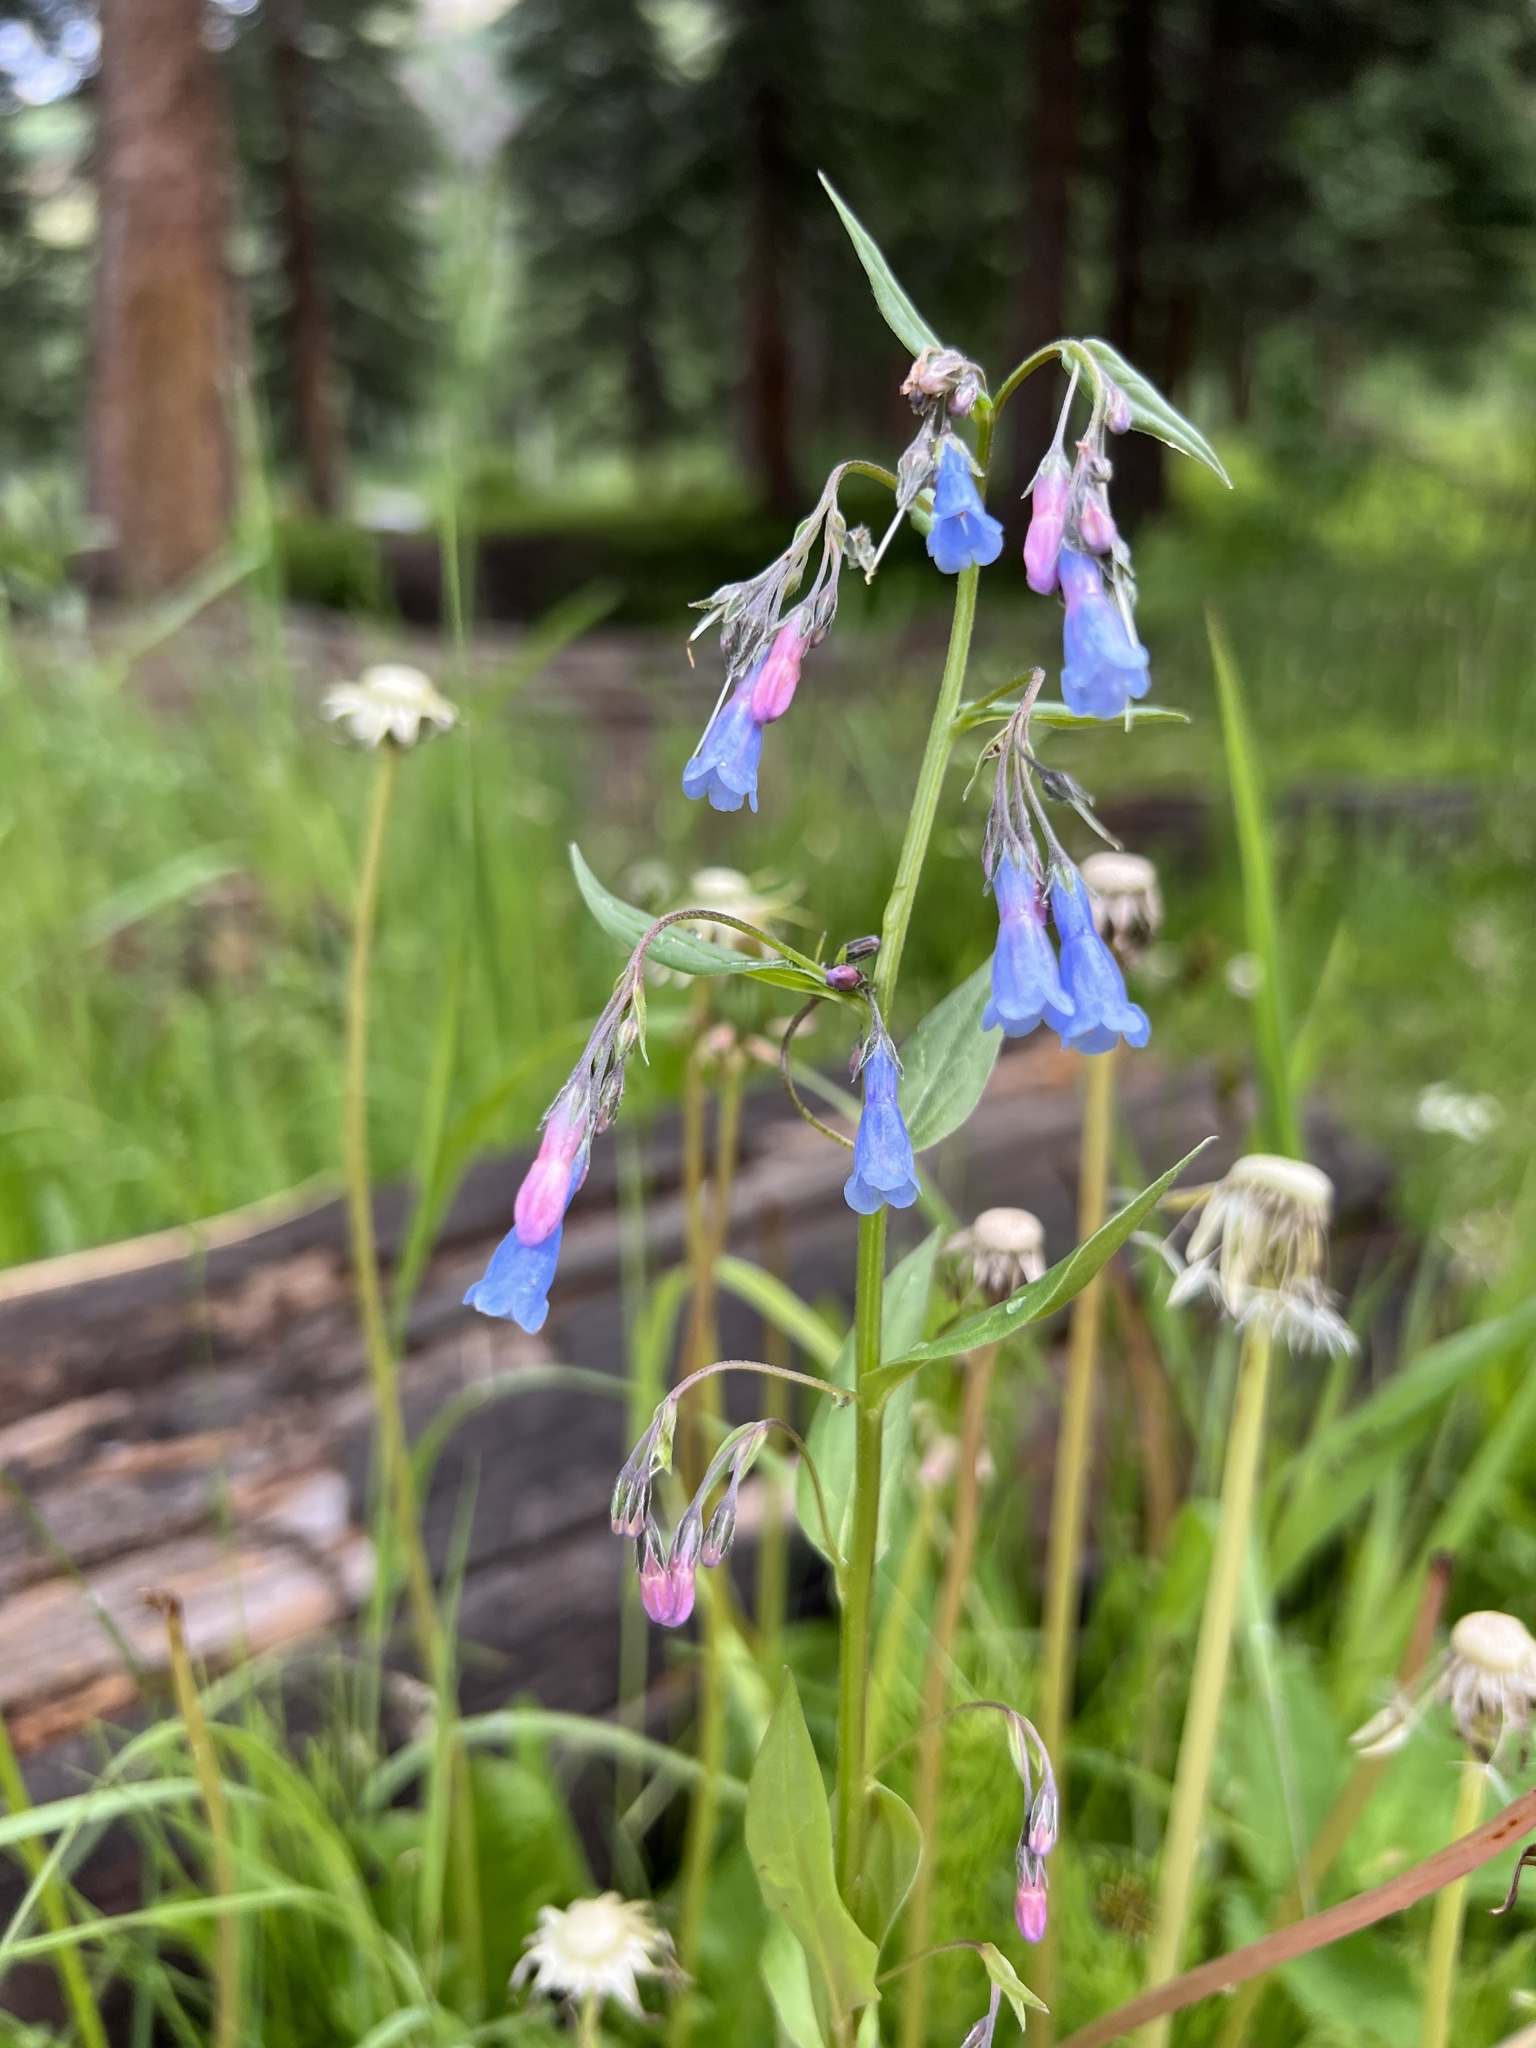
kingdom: Plantae
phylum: Tracheophyta
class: Magnoliopsida
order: Boraginales
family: Boraginaceae
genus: Mertensia
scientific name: Mertensia ciliata
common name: Tall chiming-bells
